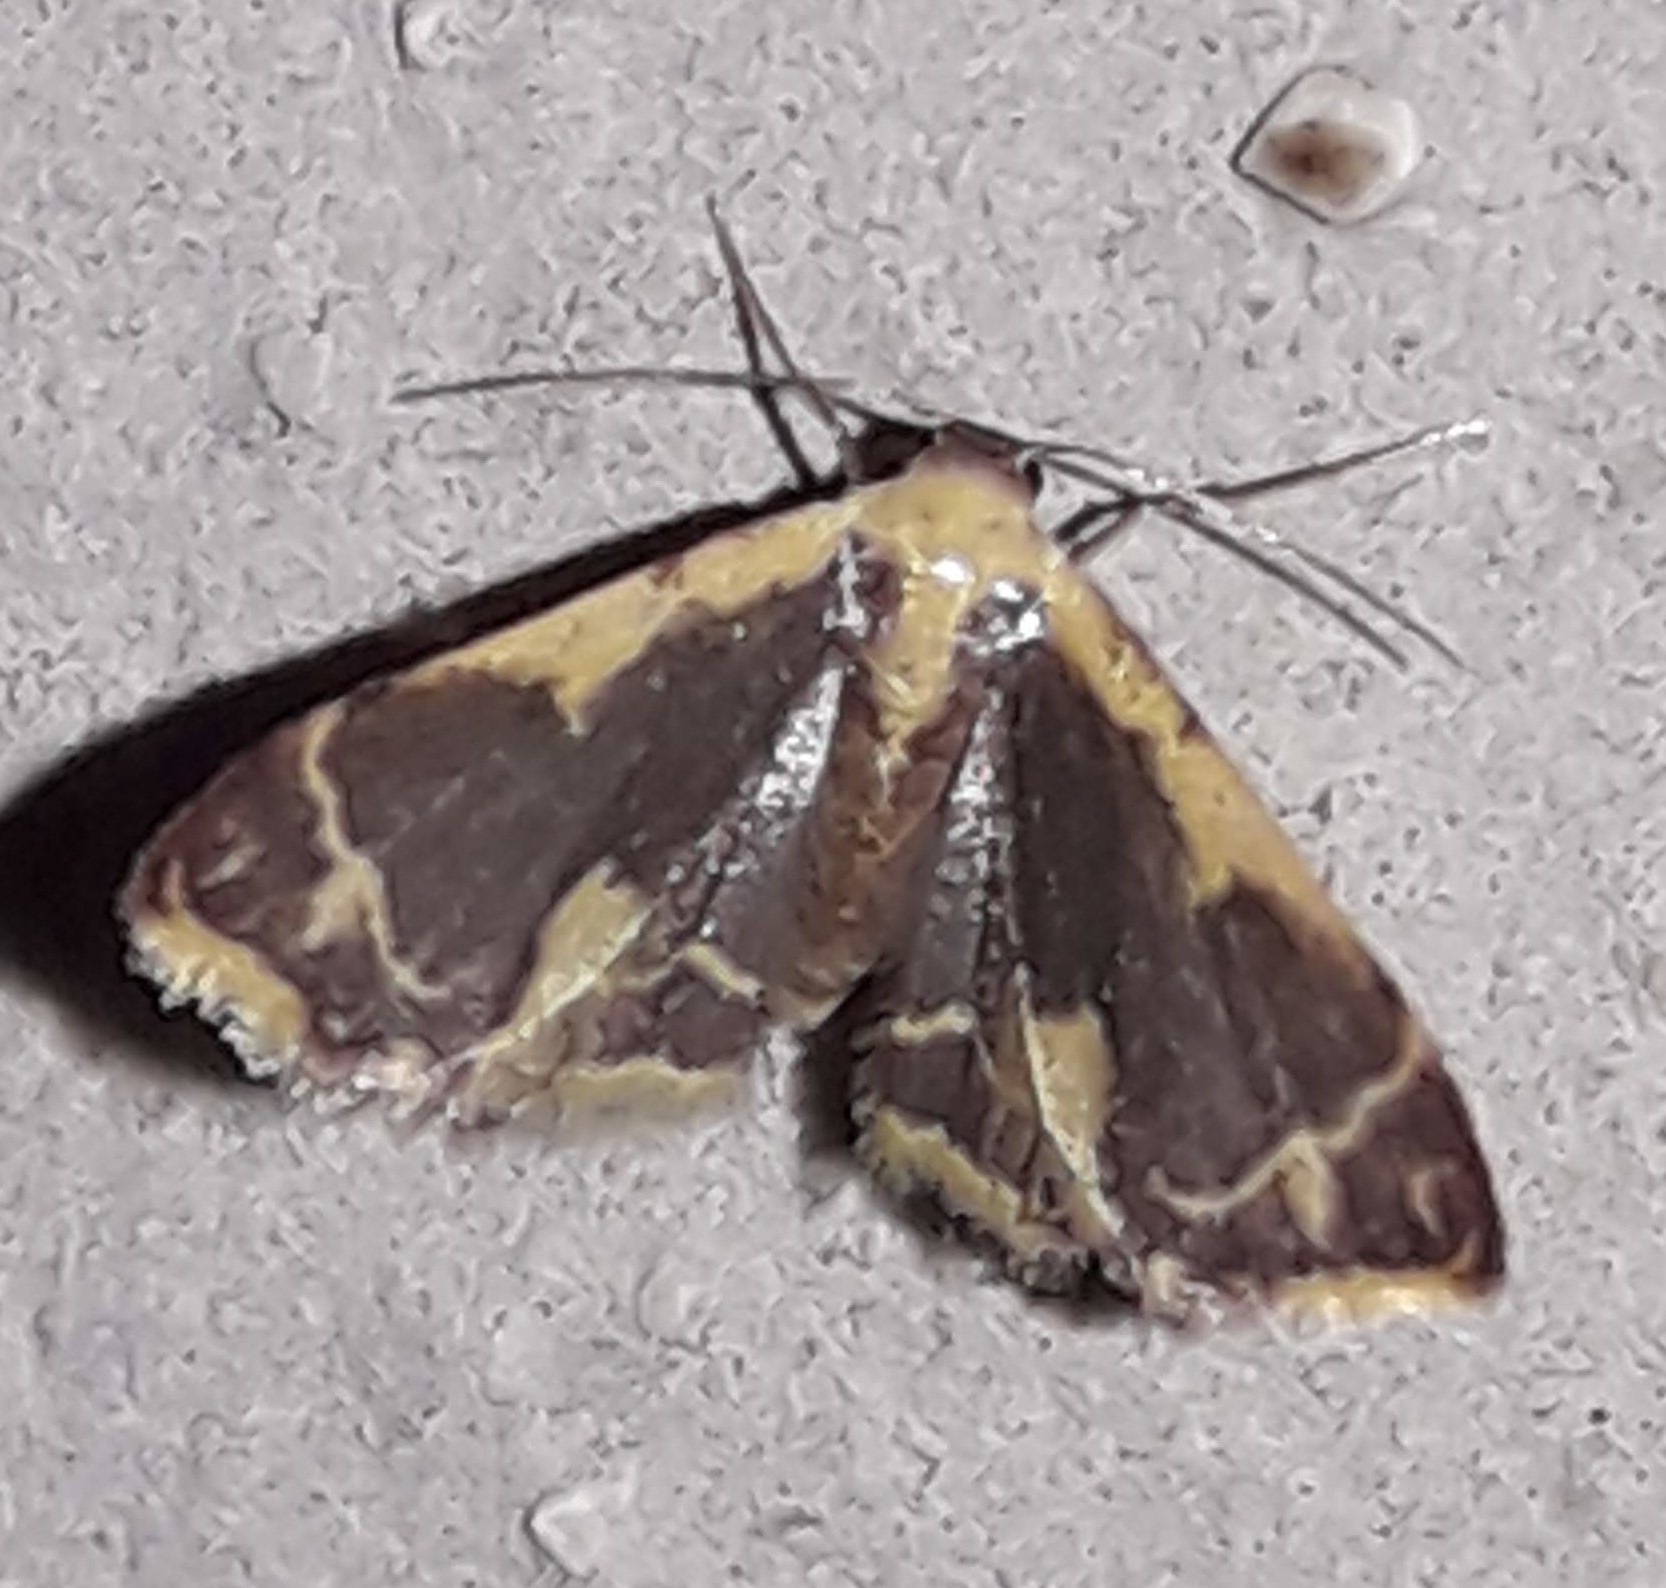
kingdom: Animalia
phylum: Arthropoda
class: Insecta
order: Lepidoptera
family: Geometridae
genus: Idaea
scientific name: Idaea gemma
